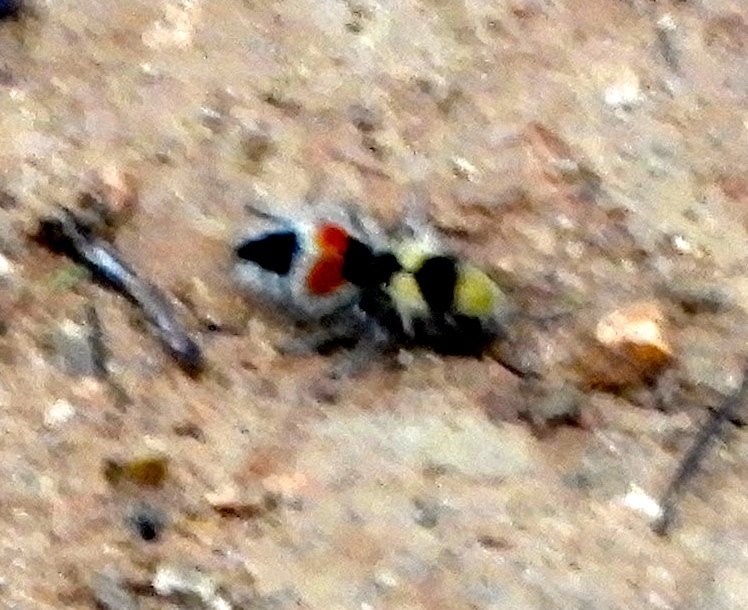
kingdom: Animalia
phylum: Arthropoda
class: Insecta
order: Hymenoptera
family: Mutillidae
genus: Dasymutilla
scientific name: Dasymutilla foxi
